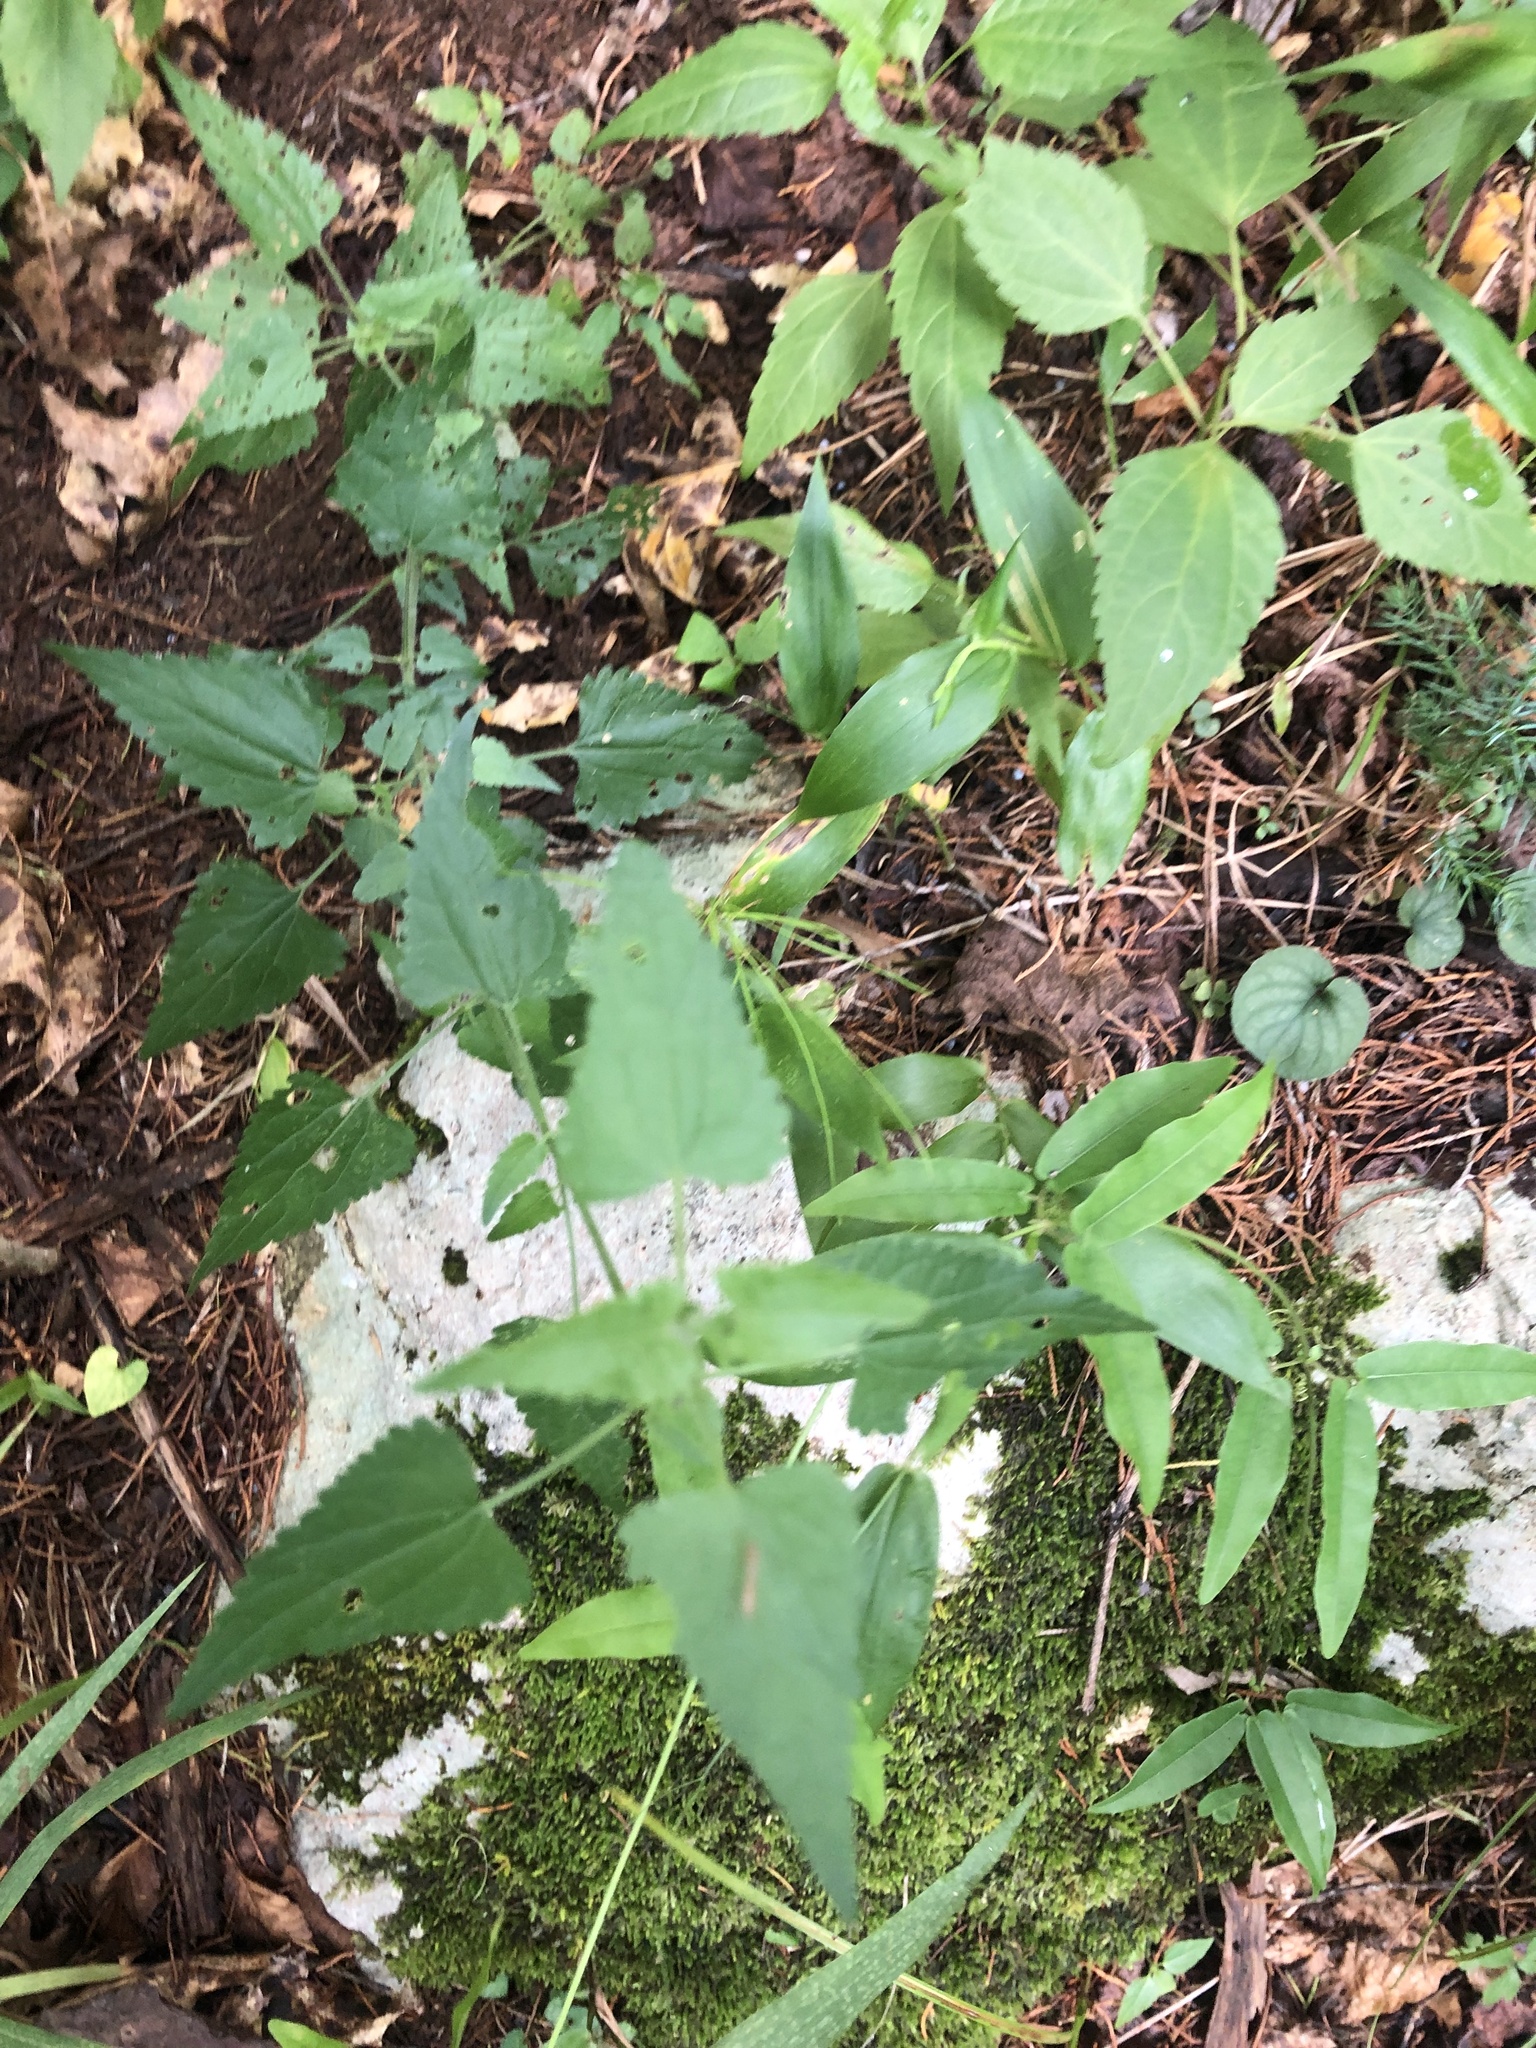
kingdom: Plantae
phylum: Tracheophyta
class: Magnoliopsida
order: Asterales
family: Asteraceae
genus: Fleischmannia
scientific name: Fleischmannia incarnata
